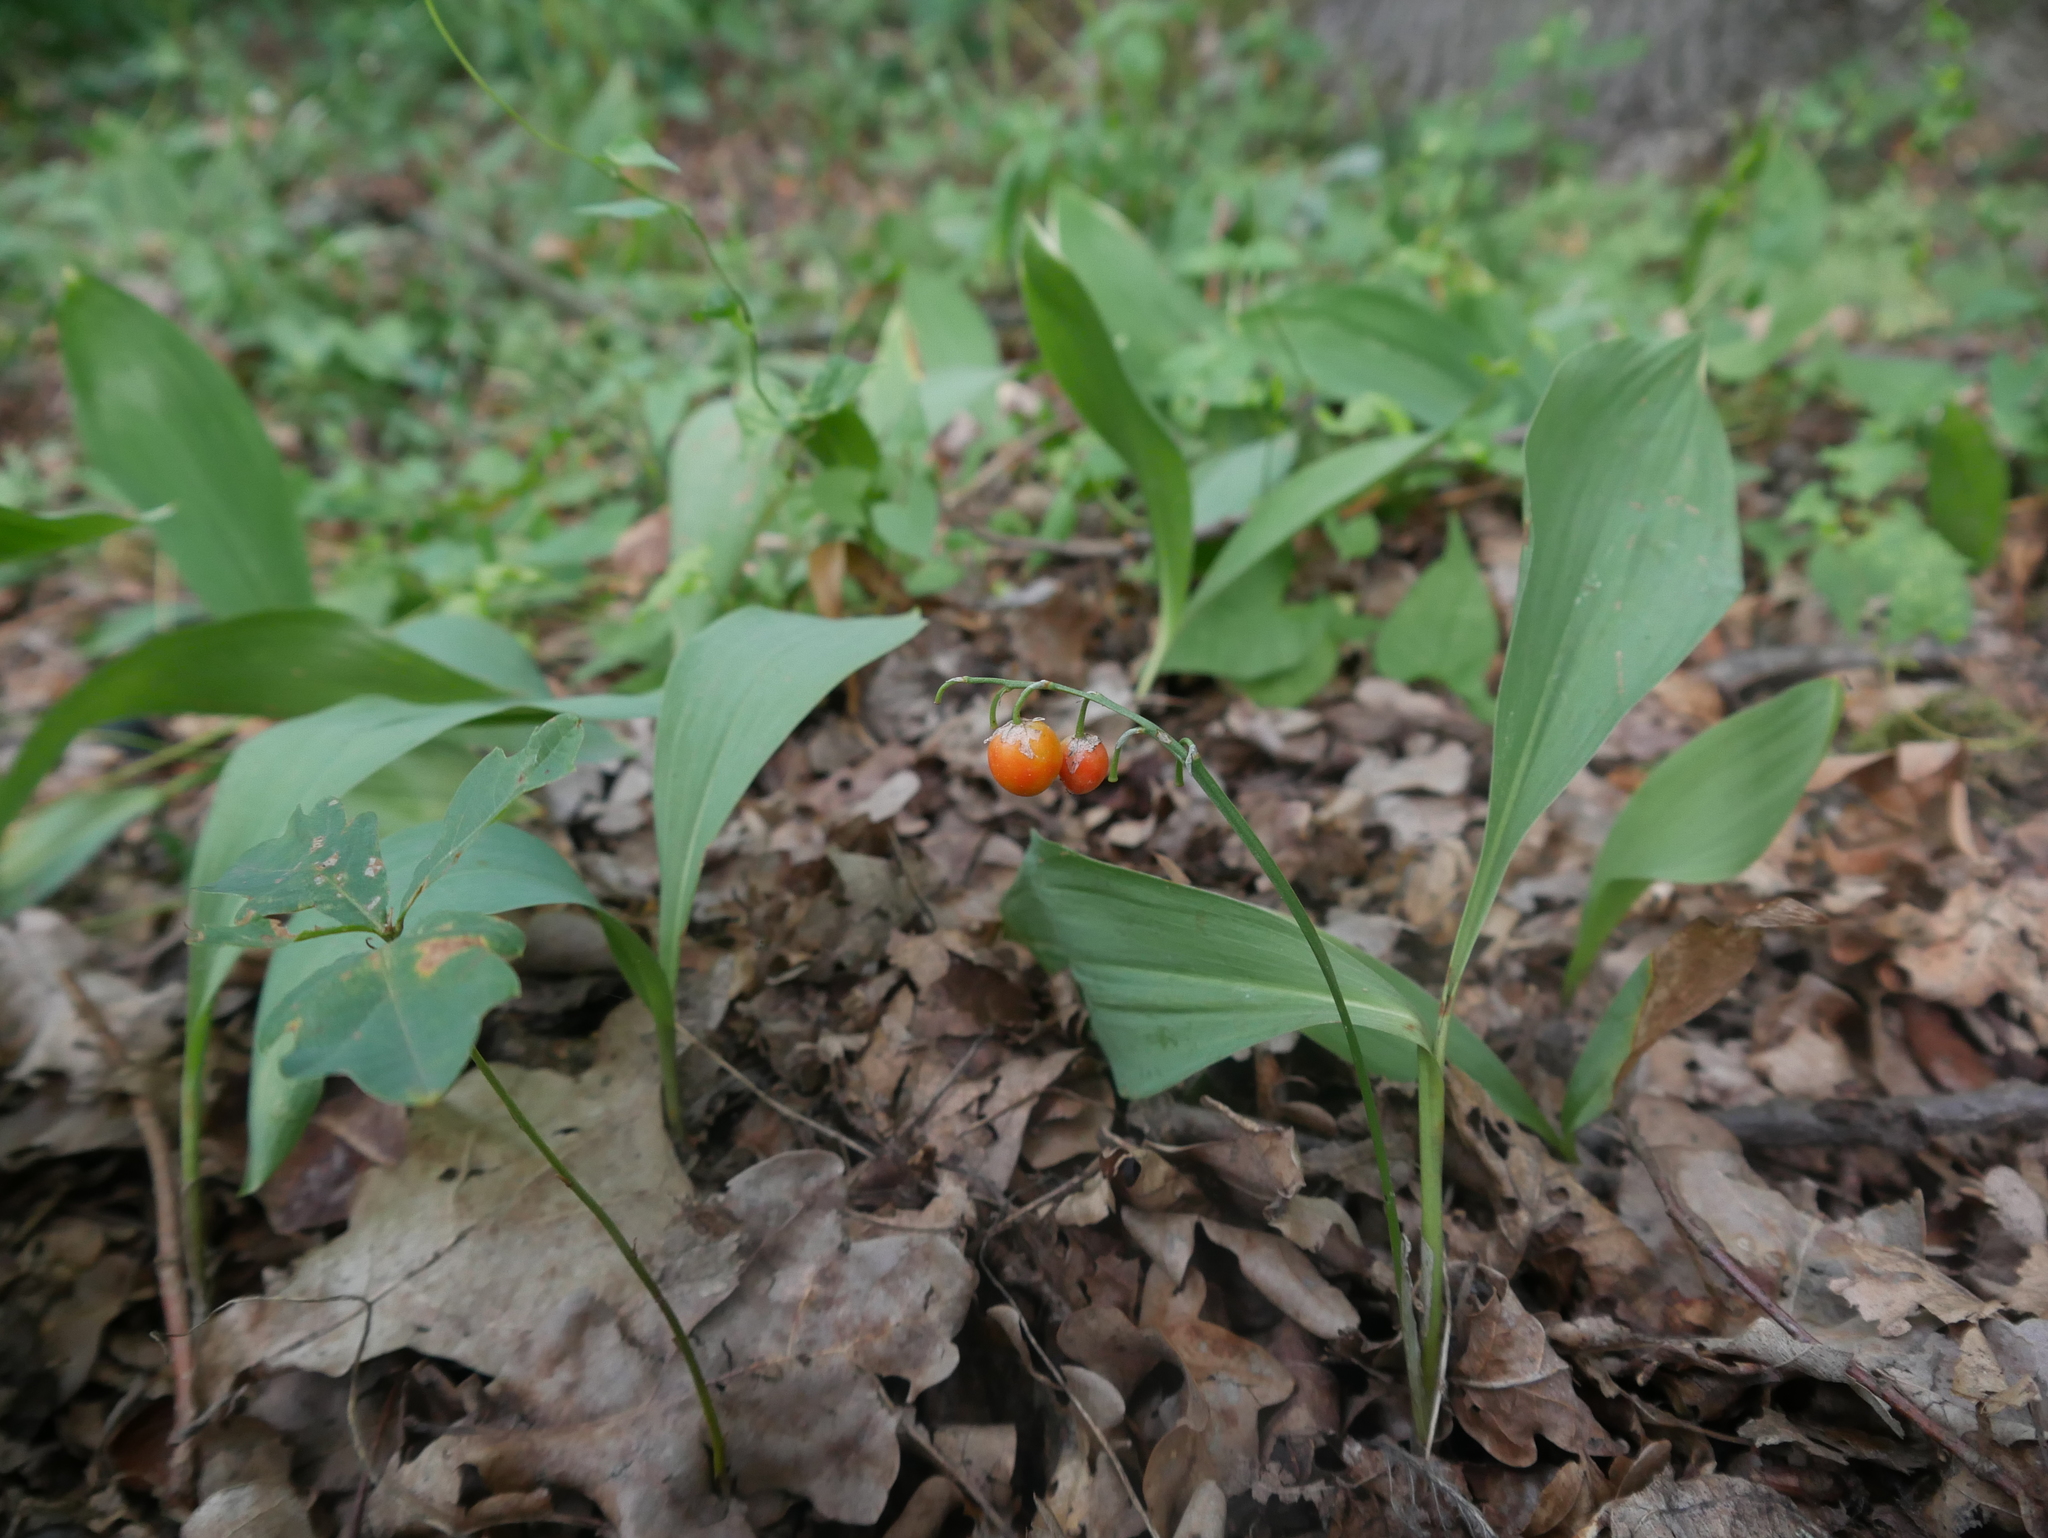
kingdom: Plantae
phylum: Tracheophyta
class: Liliopsida
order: Asparagales
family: Asparagaceae
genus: Convallaria
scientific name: Convallaria majalis
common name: Lily-of-the-valley
